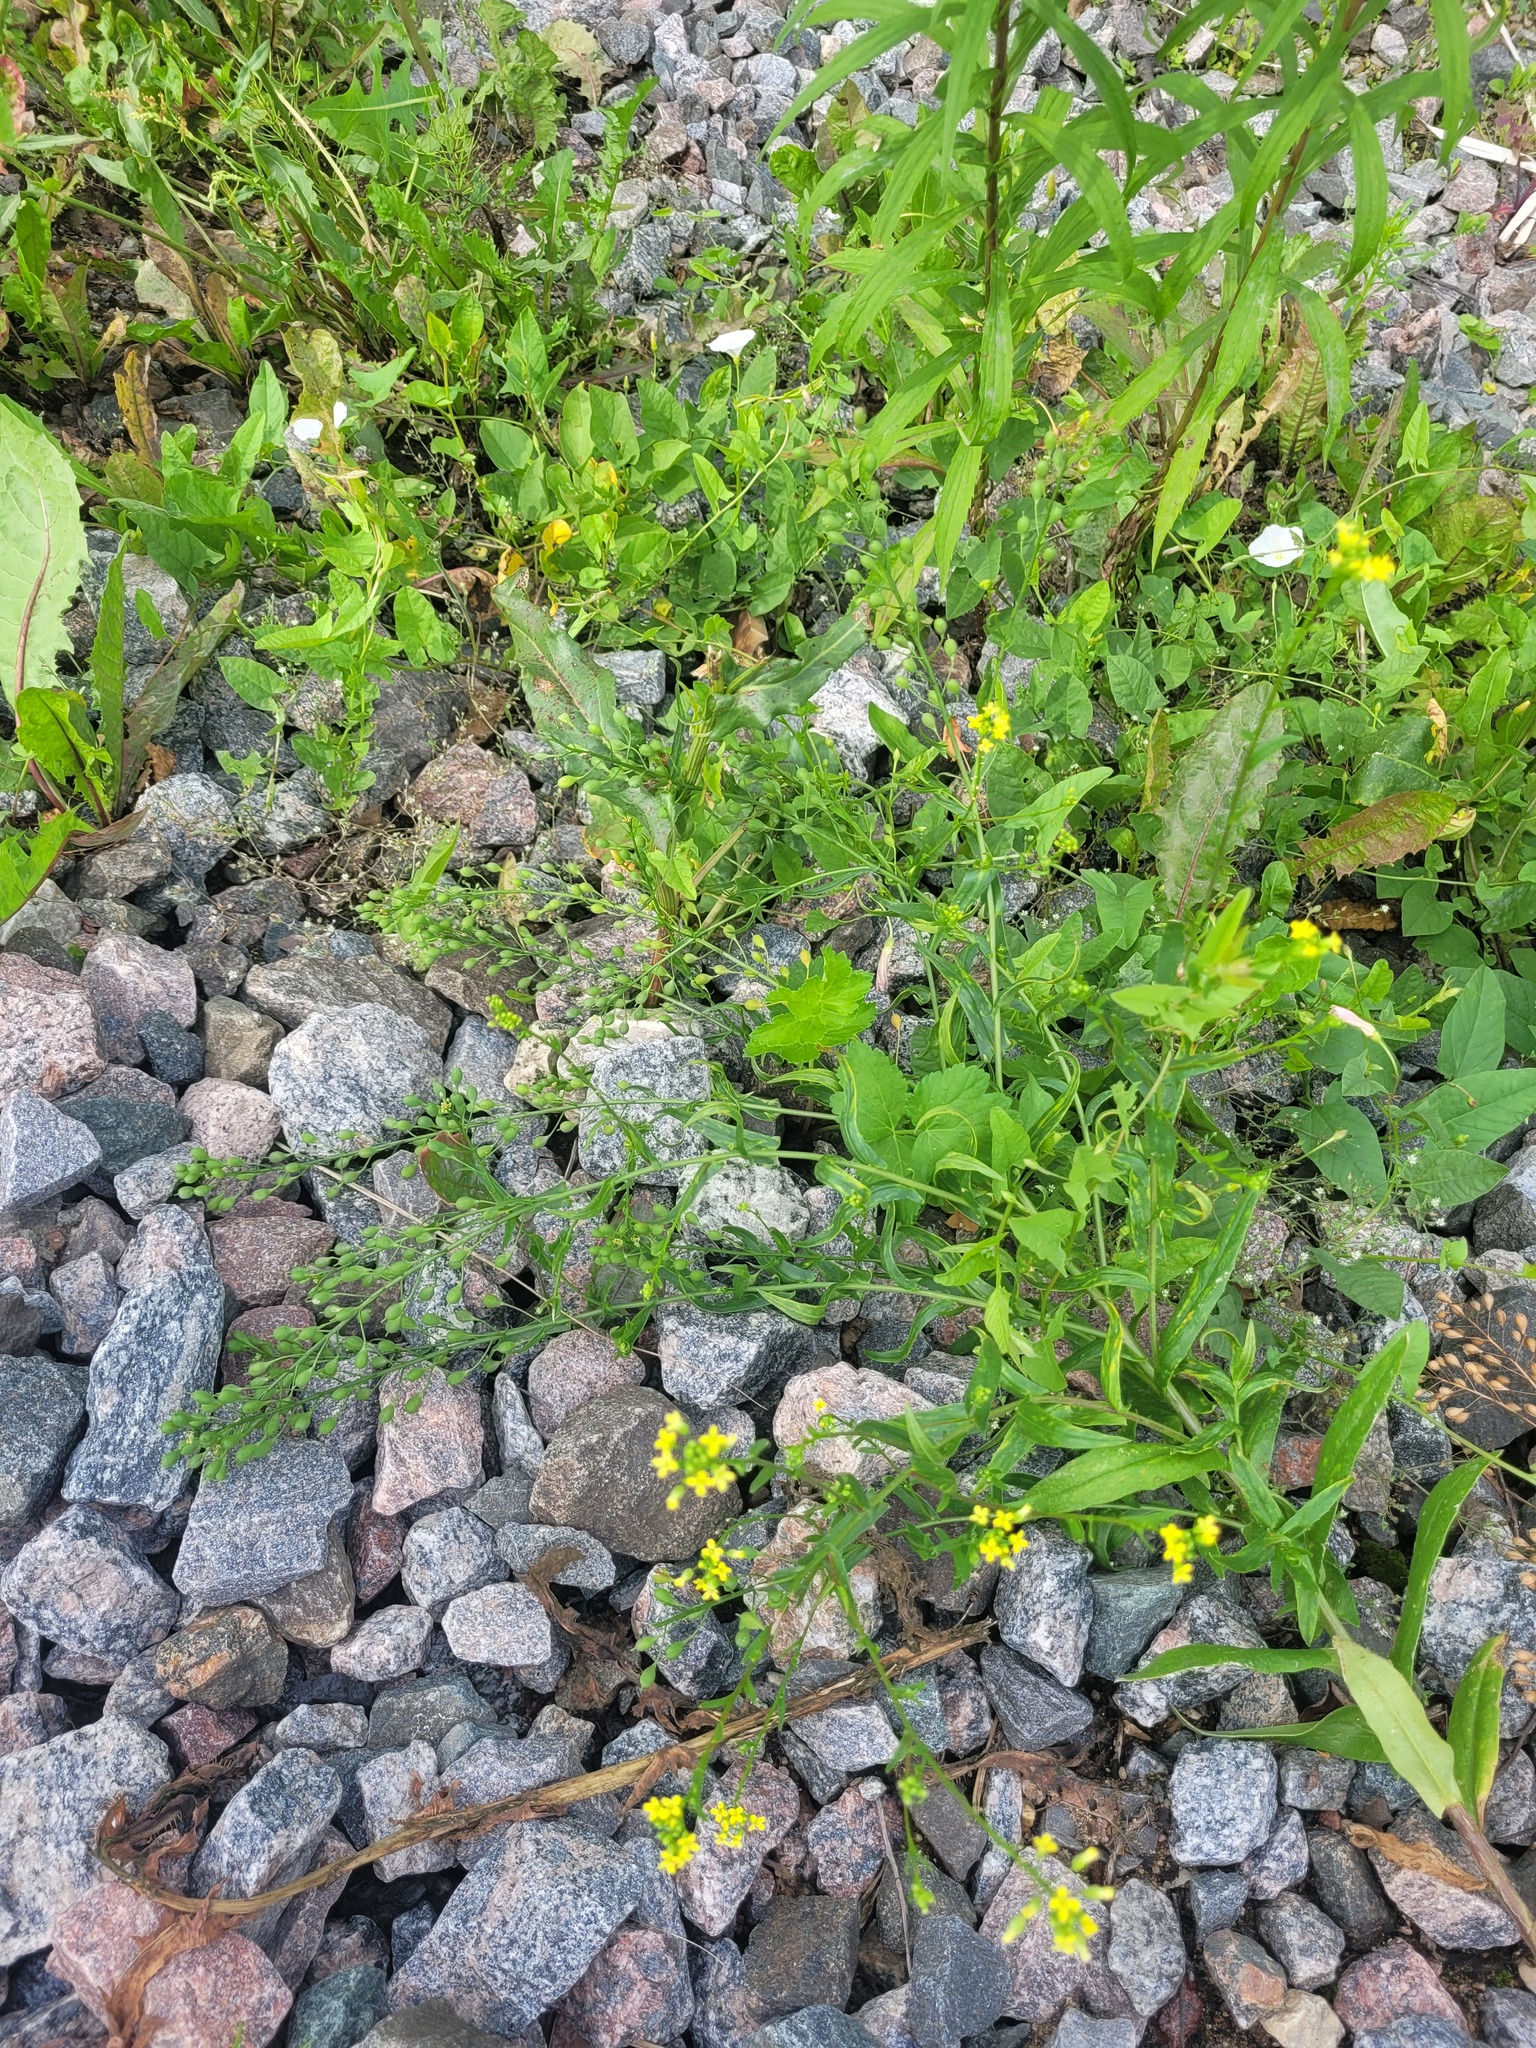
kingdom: Plantae
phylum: Tracheophyta
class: Magnoliopsida
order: Brassicales
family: Brassicaceae
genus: Camelina
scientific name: Camelina sativa
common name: Gold-of-pleasure
